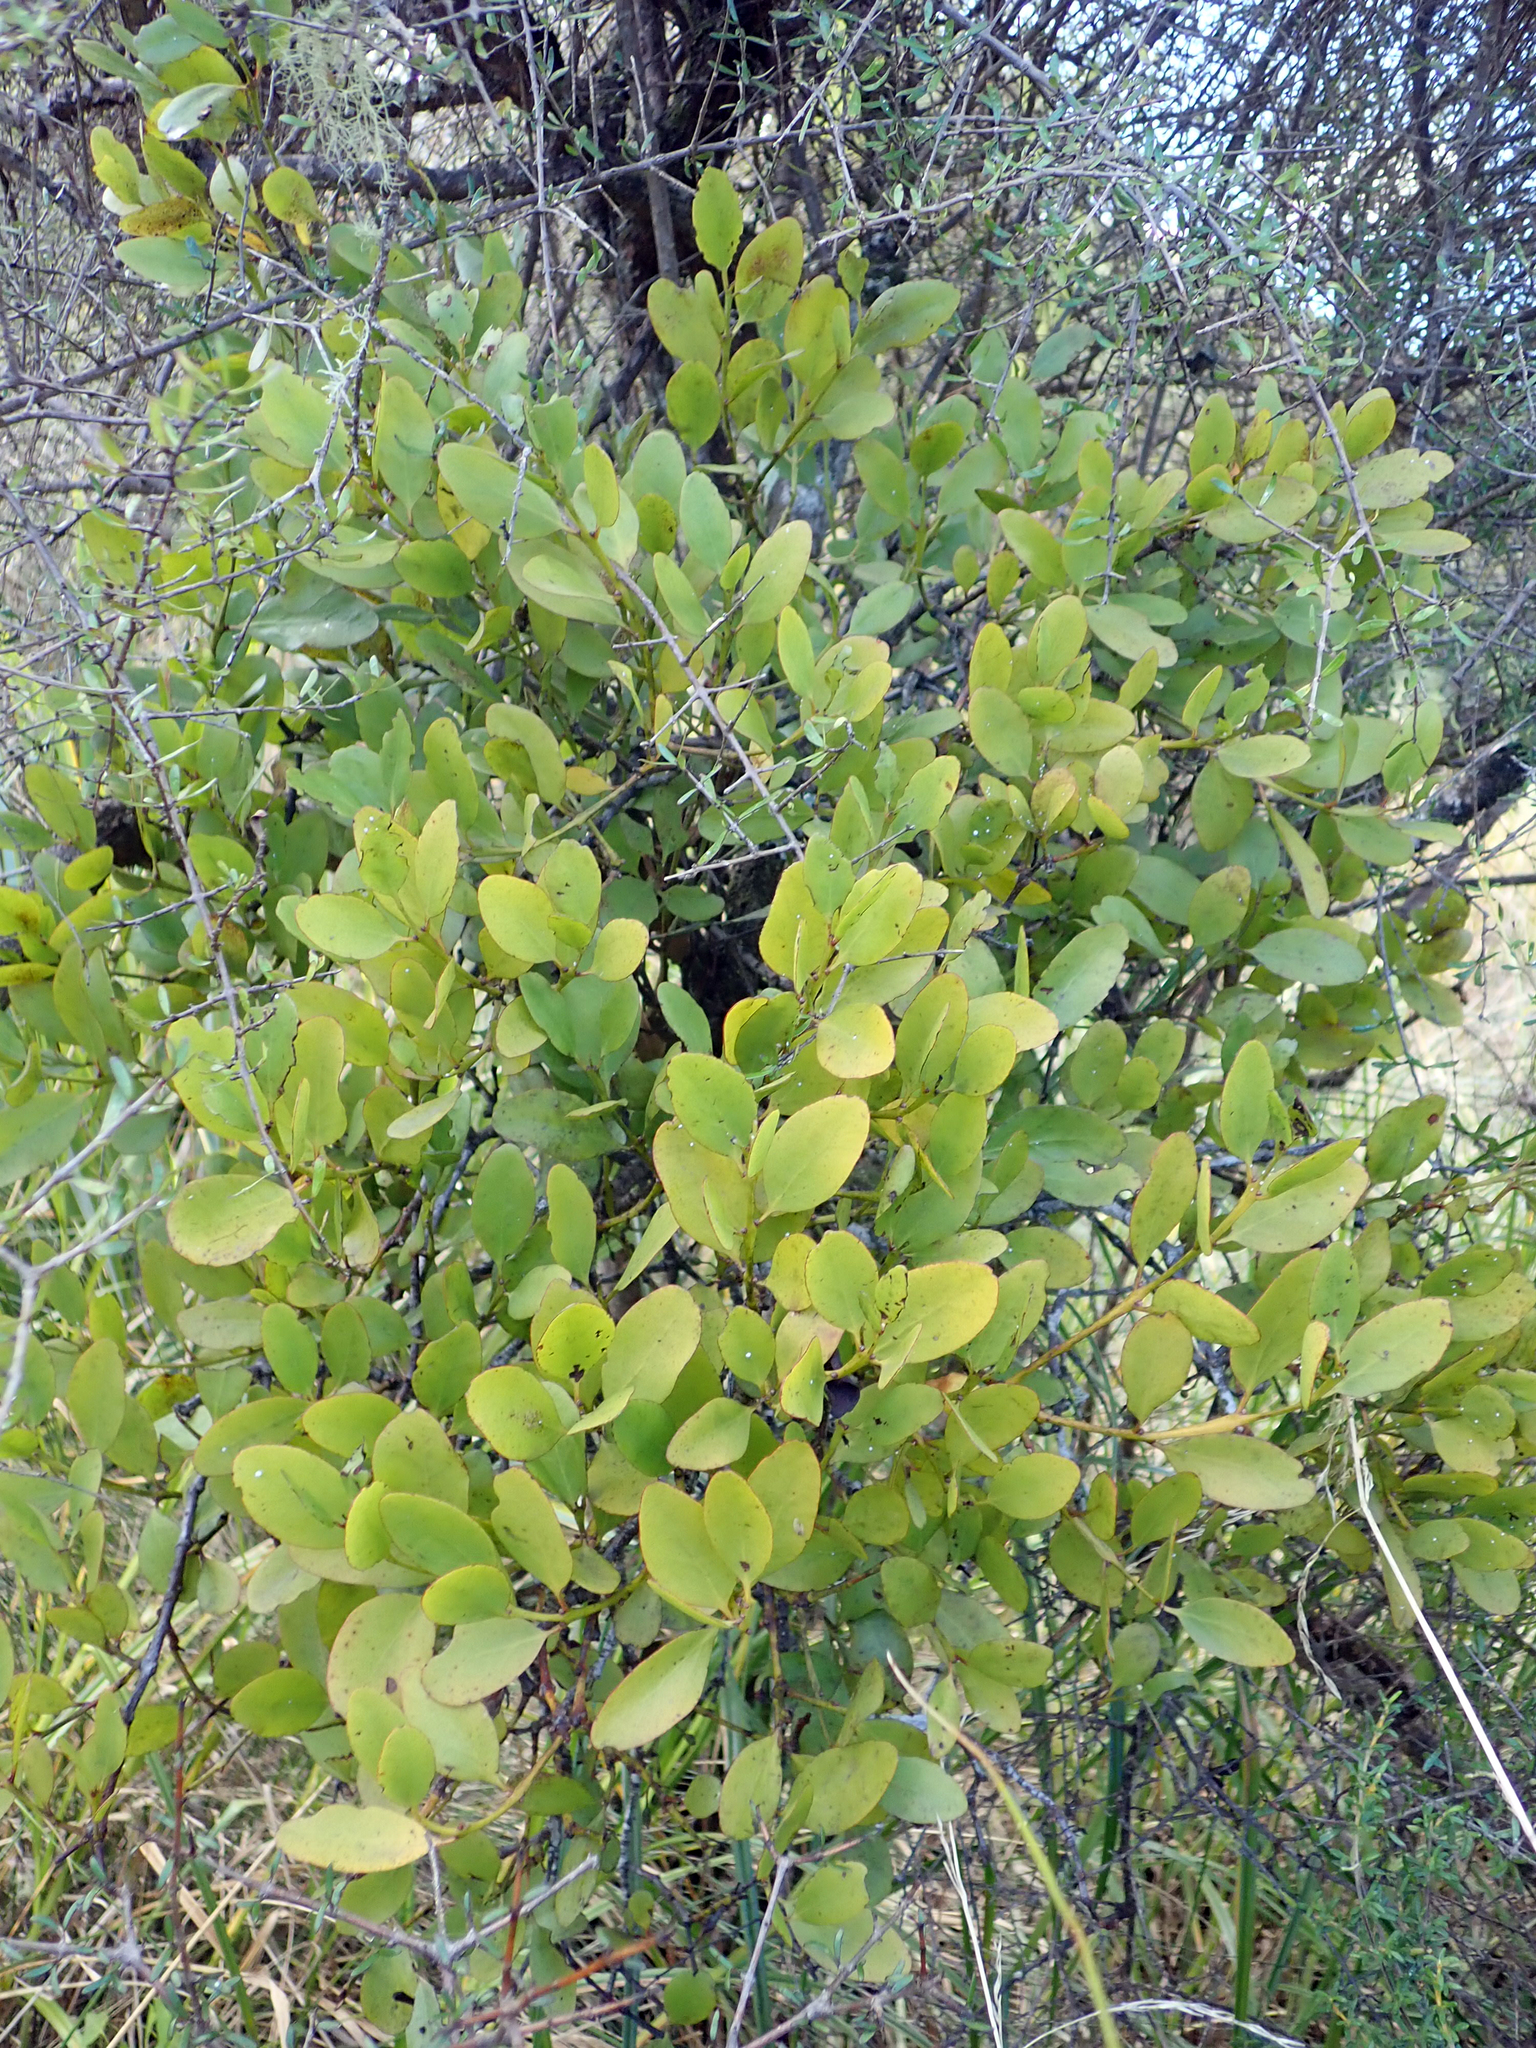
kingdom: Animalia
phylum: Arthropoda
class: Insecta
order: Hemiptera
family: Coccidae
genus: Ceroplastes
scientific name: Ceroplastes sinensis
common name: Hard wax scale
